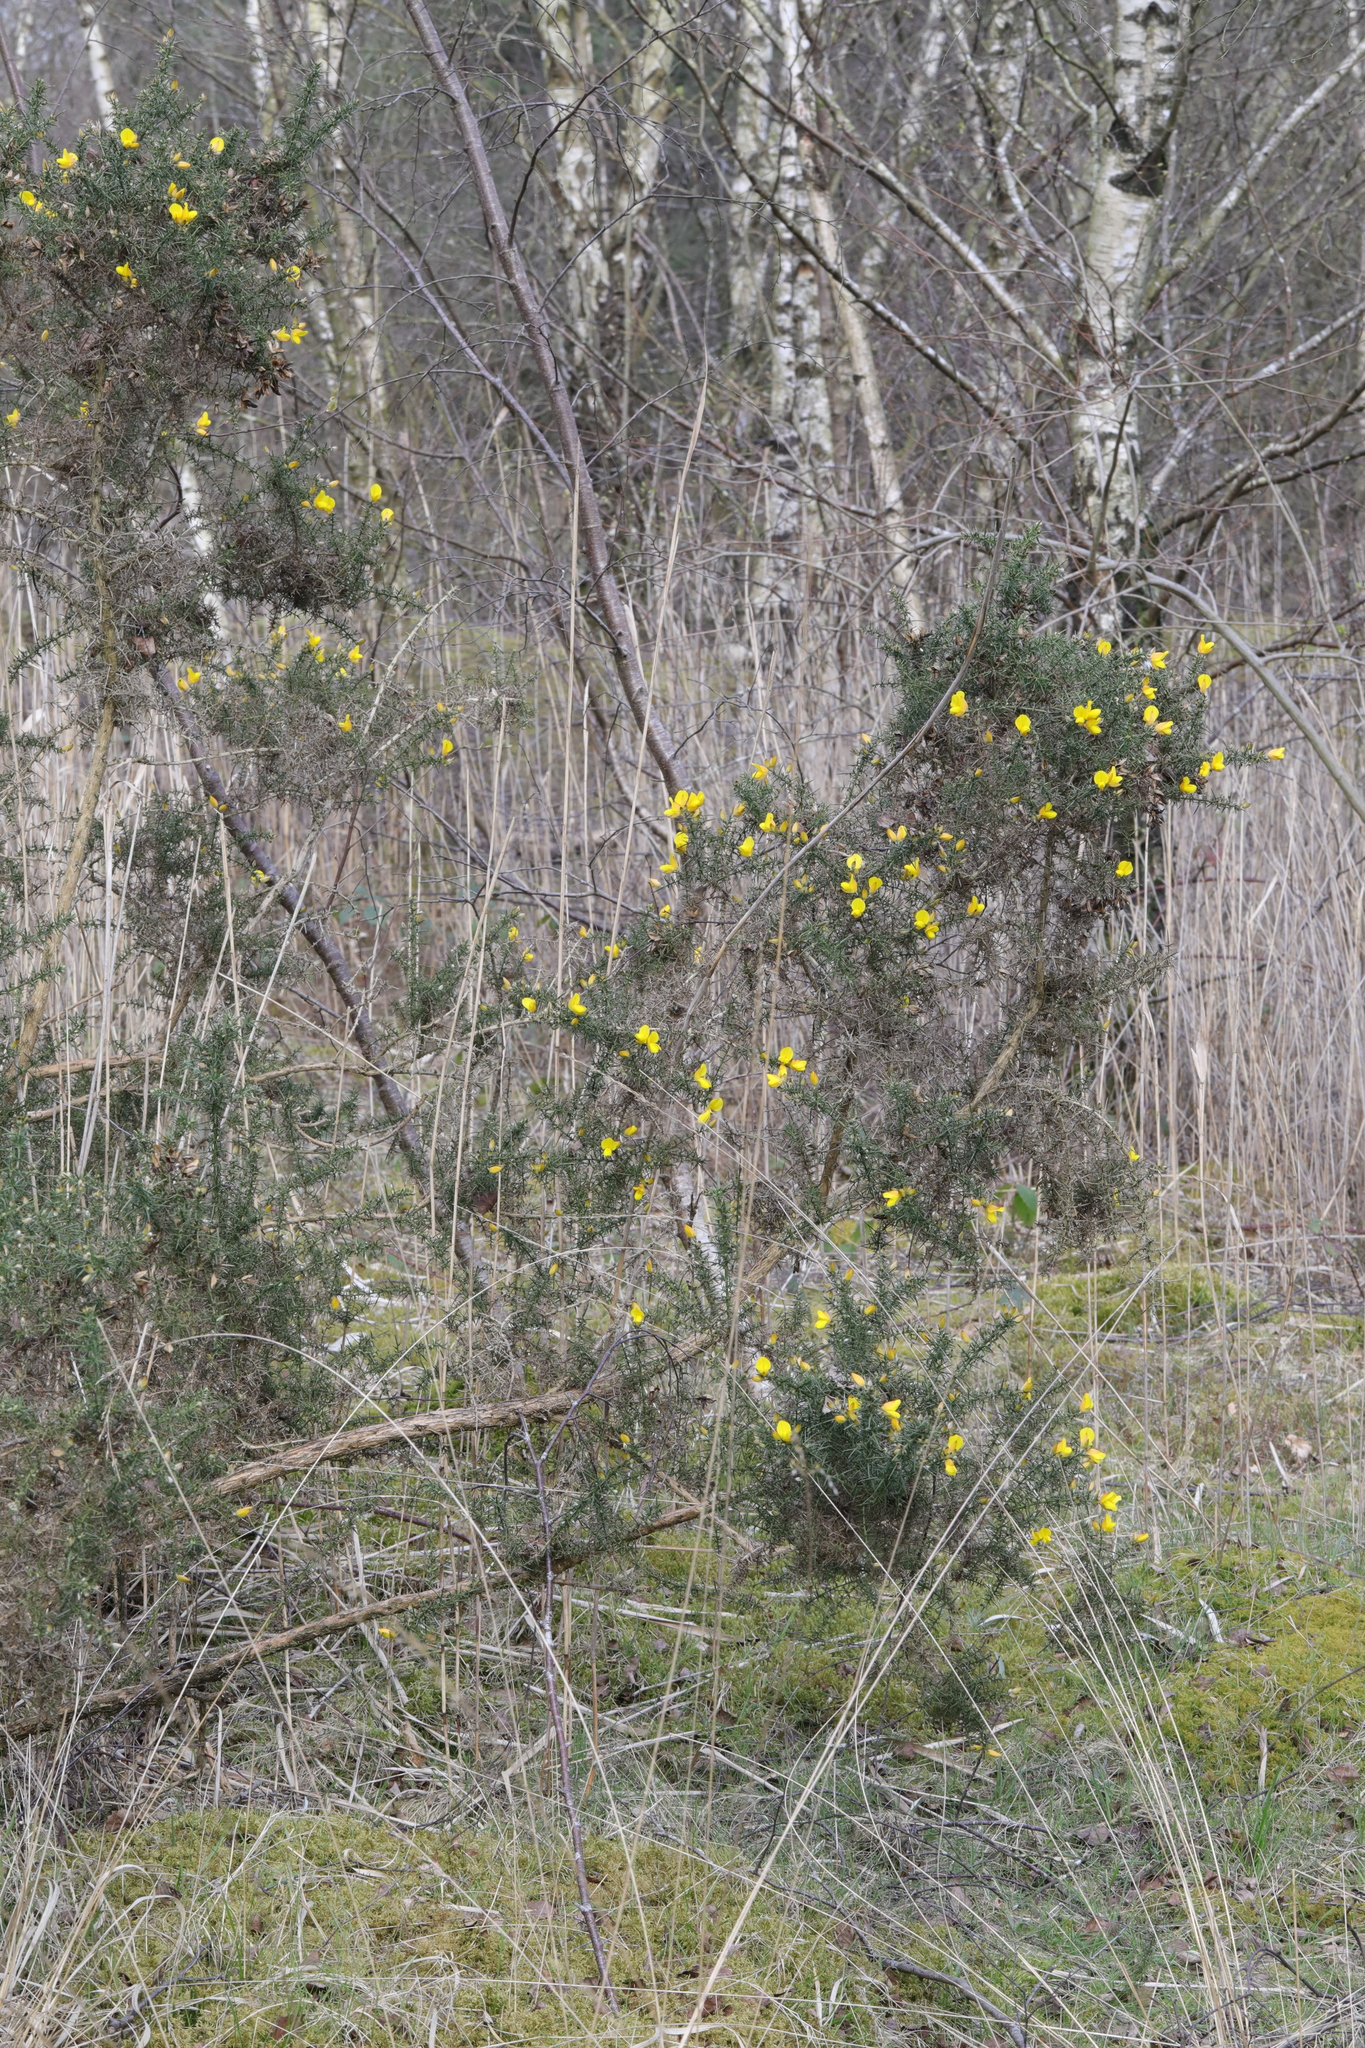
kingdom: Plantae
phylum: Tracheophyta
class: Magnoliopsida
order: Fabales
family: Fabaceae
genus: Ulex
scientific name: Ulex europaeus
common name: Common gorse
